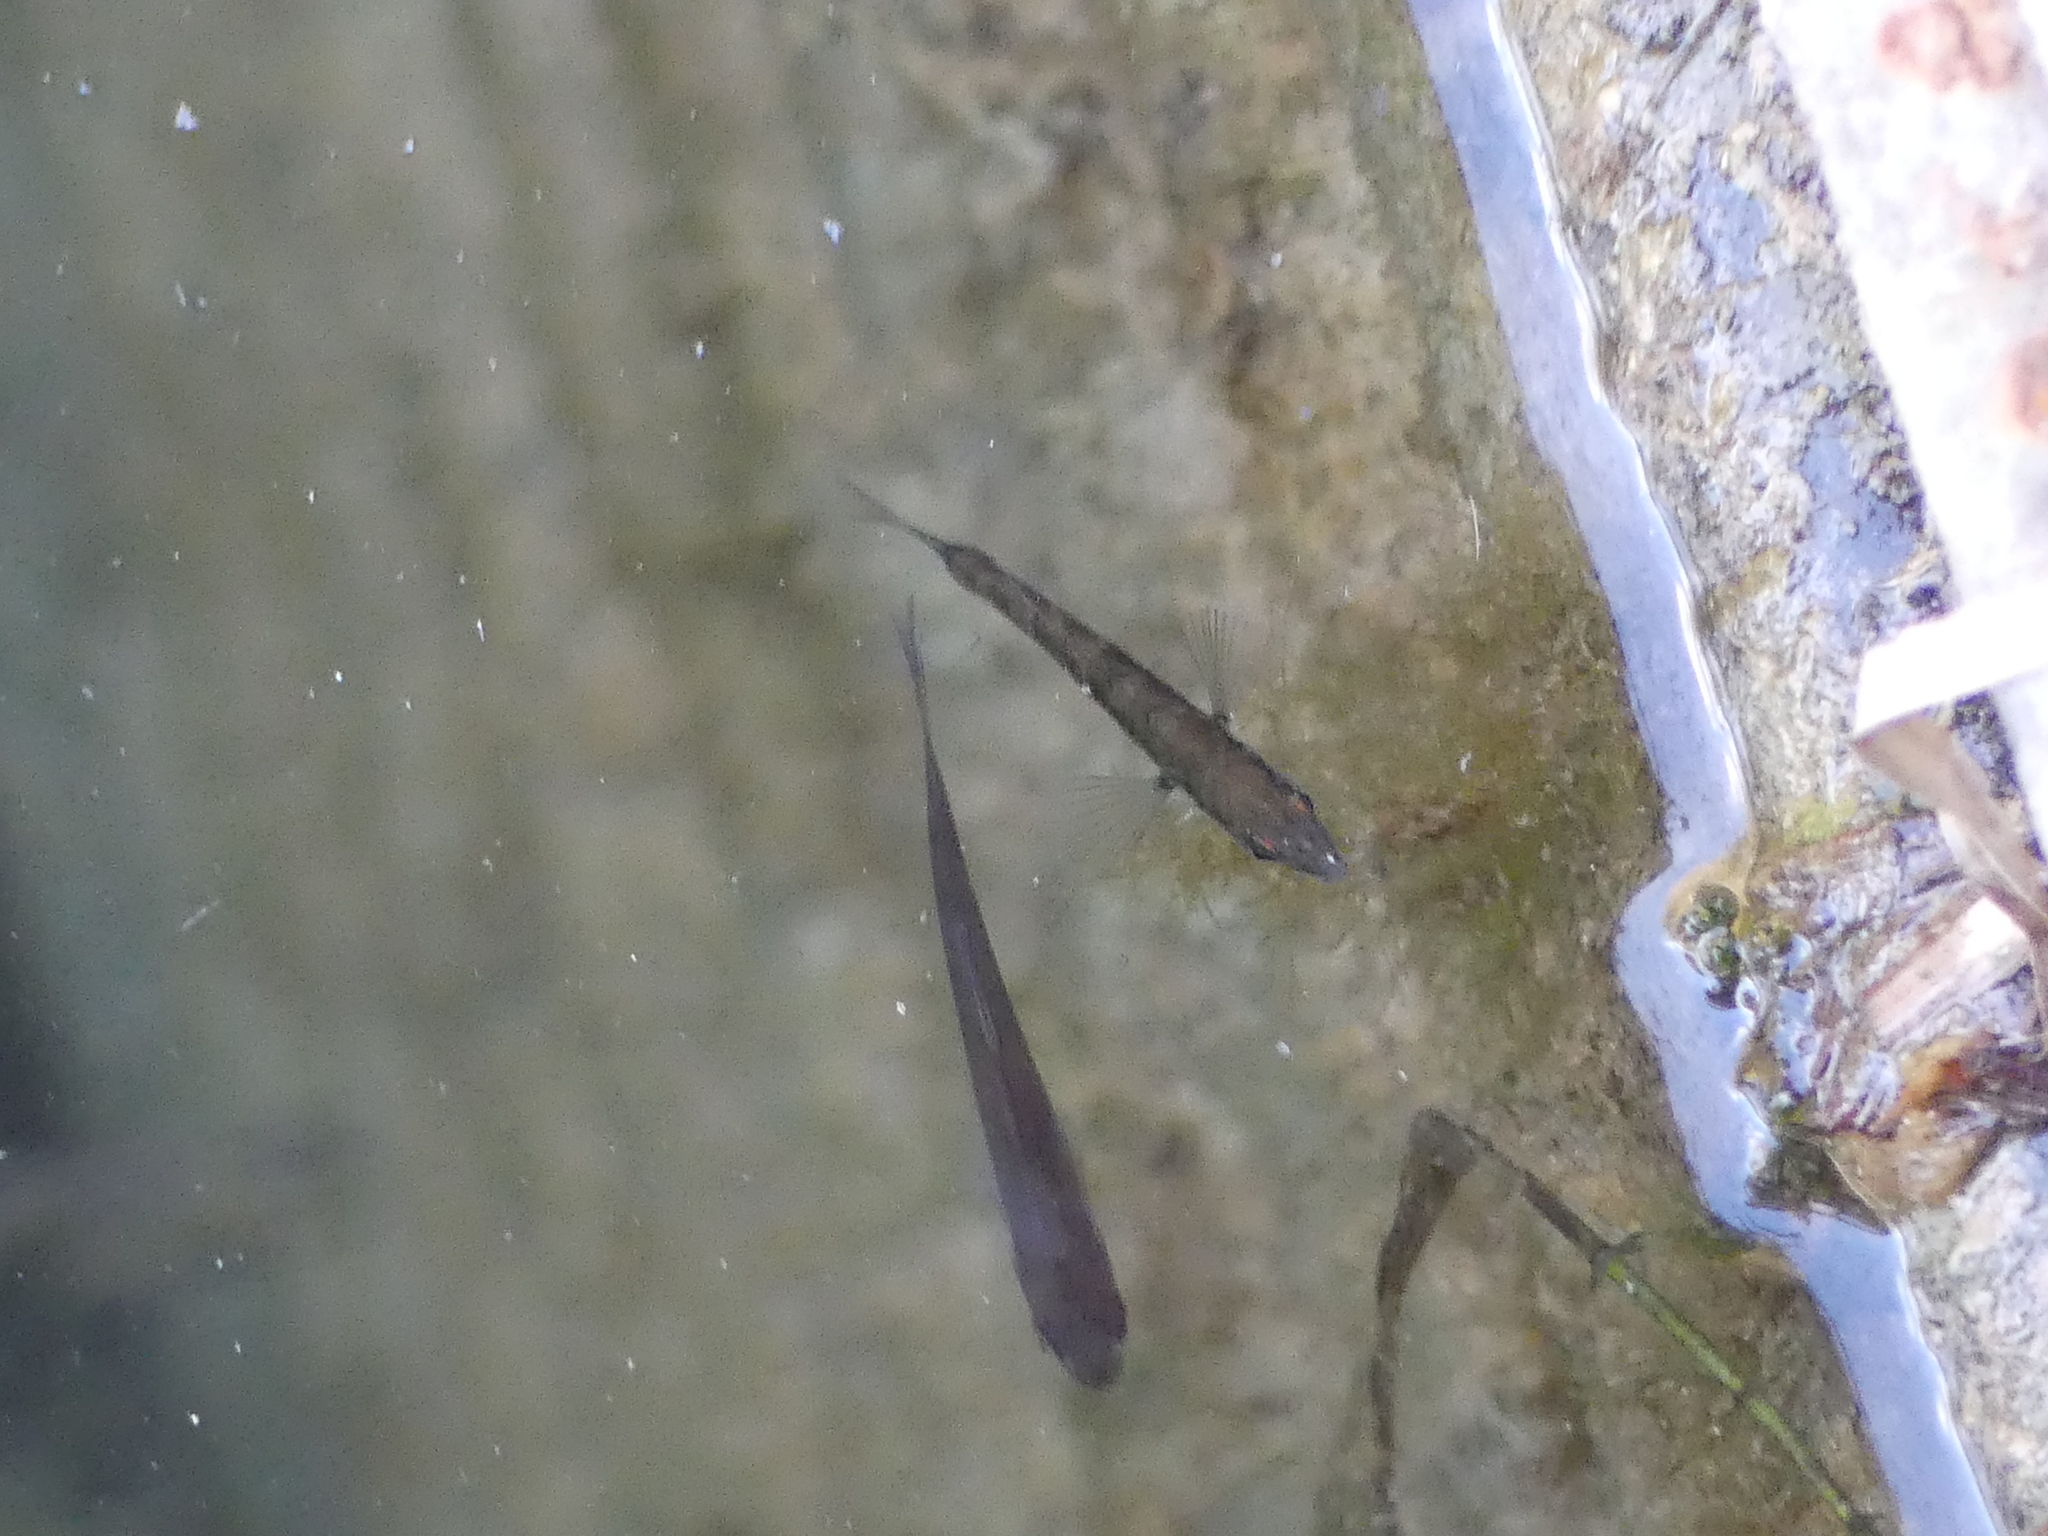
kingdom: Animalia
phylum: Chordata
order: Gasterosteiformes
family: Gasterosteidae
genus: Gasterosteus
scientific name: Gasterosteus aculeatus
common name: Three-spined stickleback
